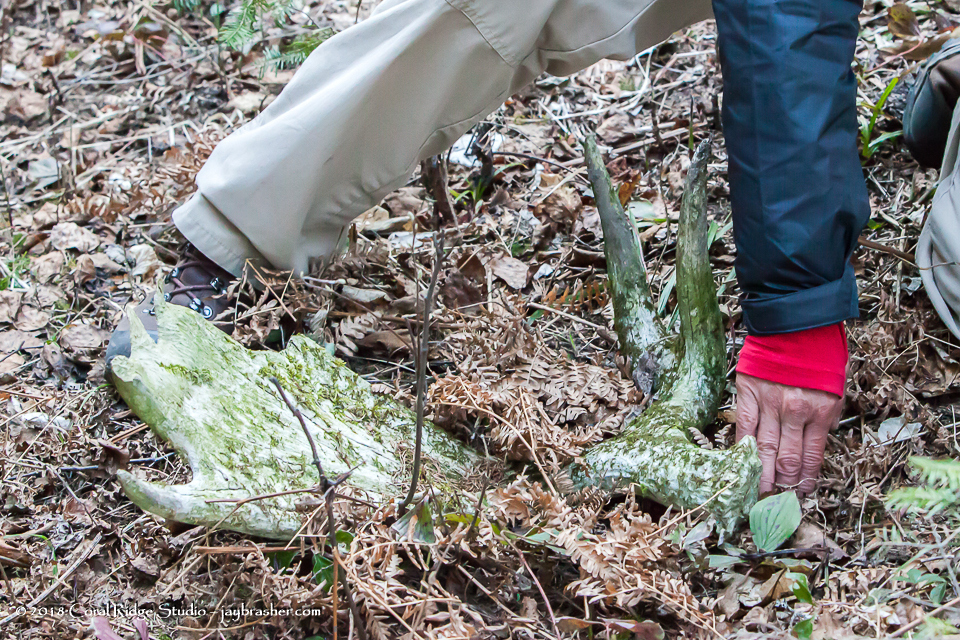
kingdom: Animalia
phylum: Chordata
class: Mammalia
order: Artiodactyla
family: Cervidae
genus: Alces
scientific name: Alces alces
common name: Moose
